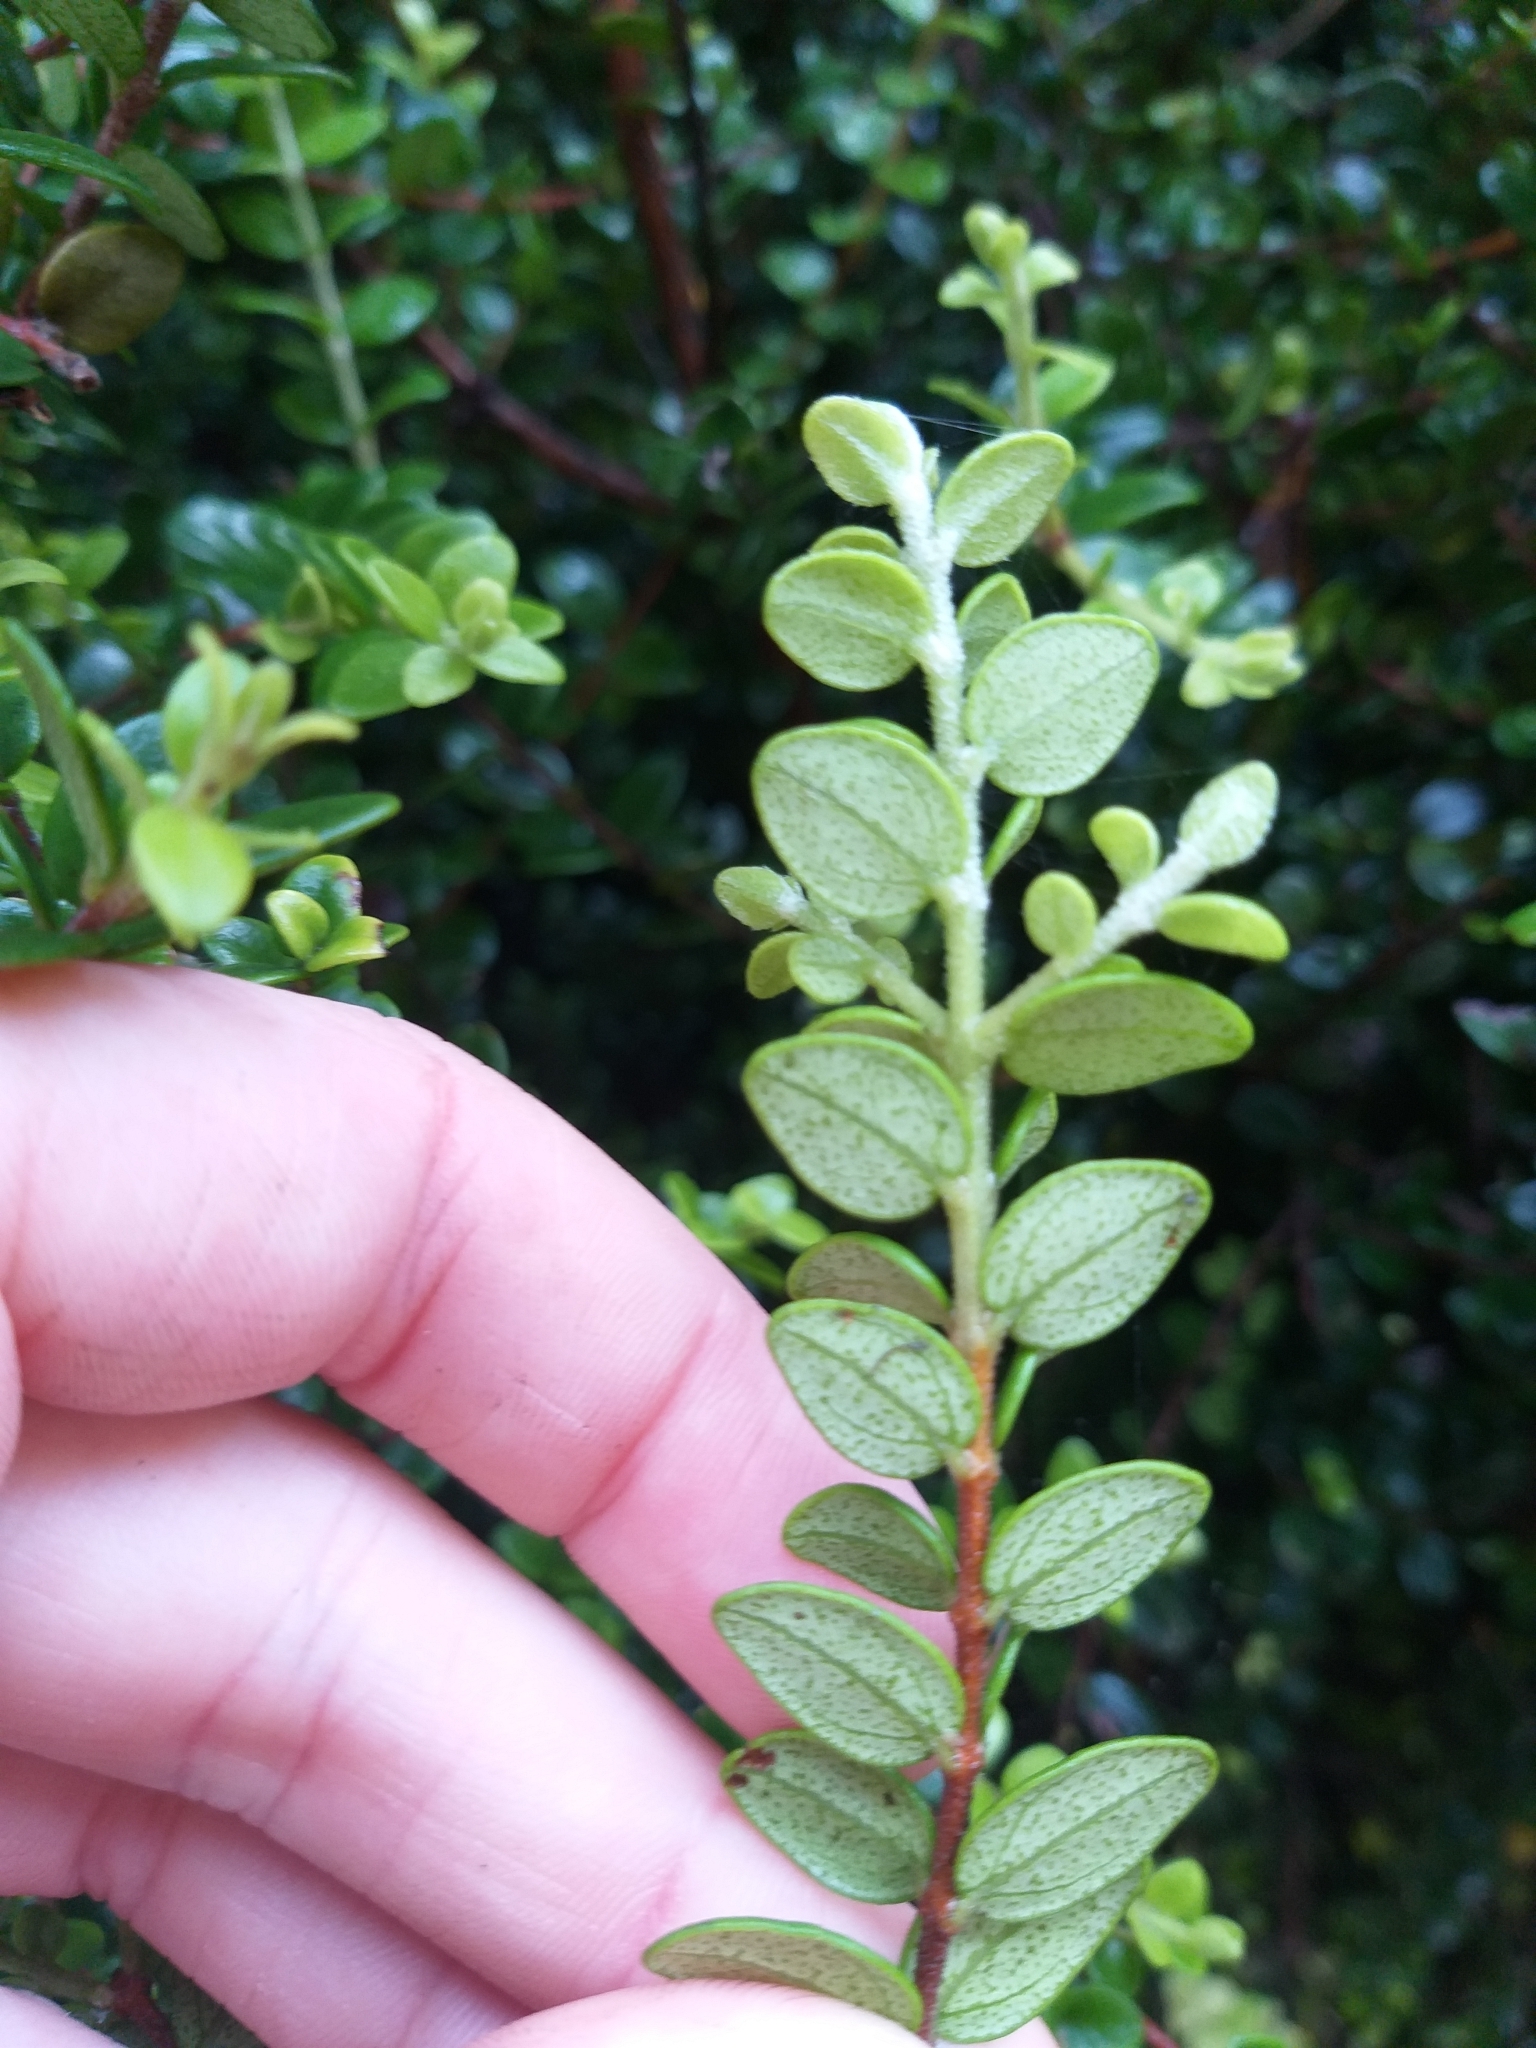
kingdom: Plantae
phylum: Tracheophyta
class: Magnoliopsida
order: Myrtales
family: Myrtaceae
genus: Metrosideros
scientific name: Metrosideros perforata
